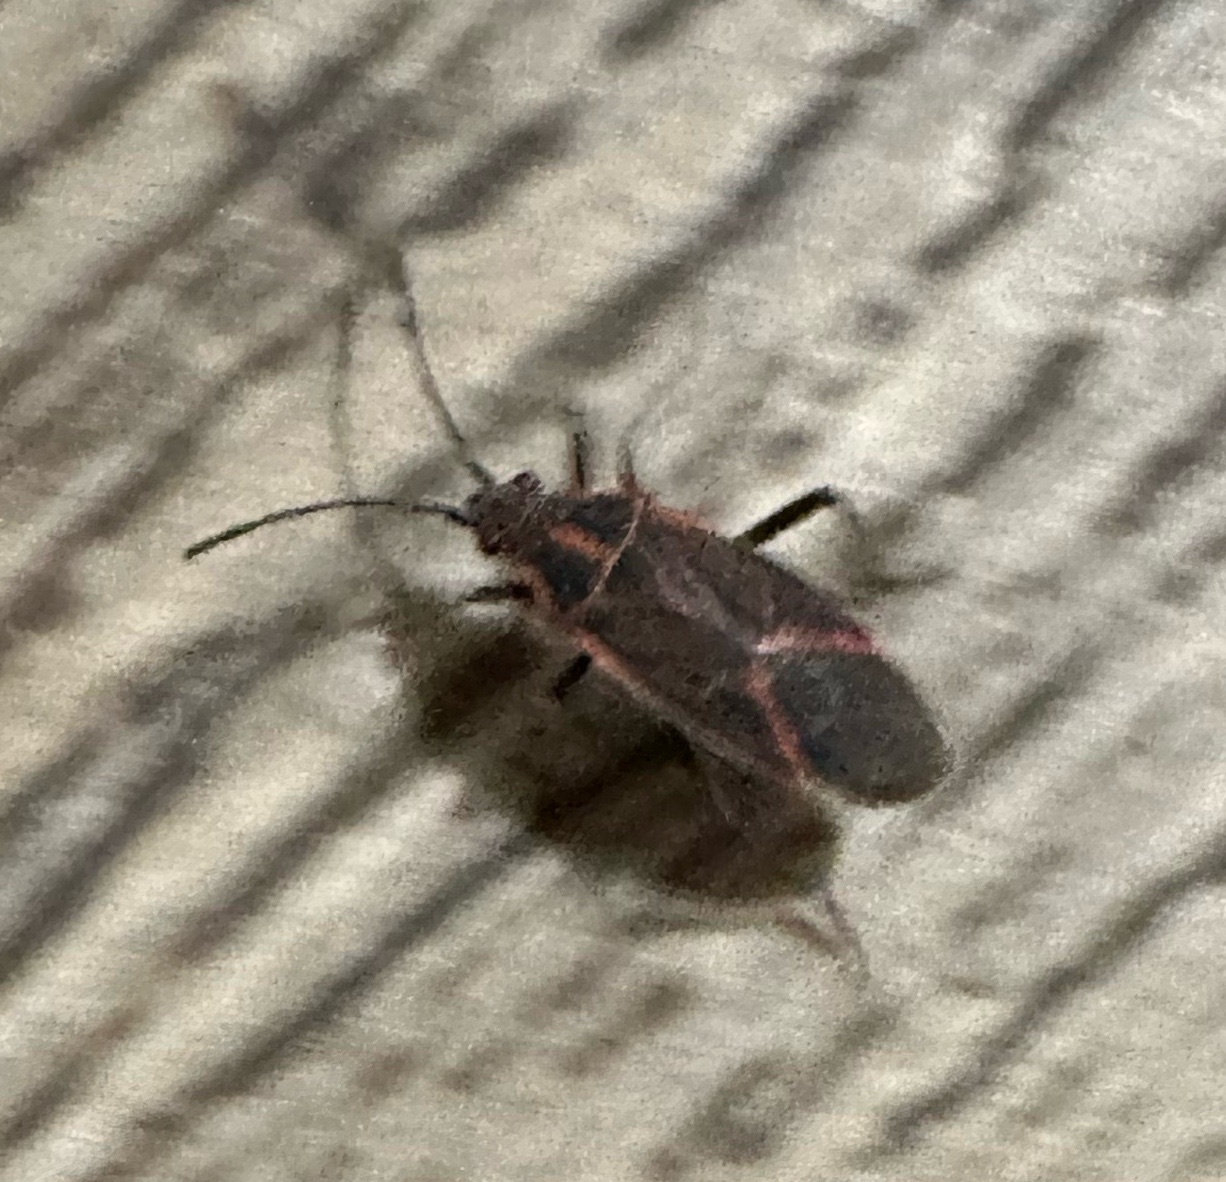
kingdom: Animalia
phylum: Arthropoda
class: Insecta
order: Hemiptera
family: Rhopalidae
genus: Boisea
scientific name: Boisea rubrolineata
